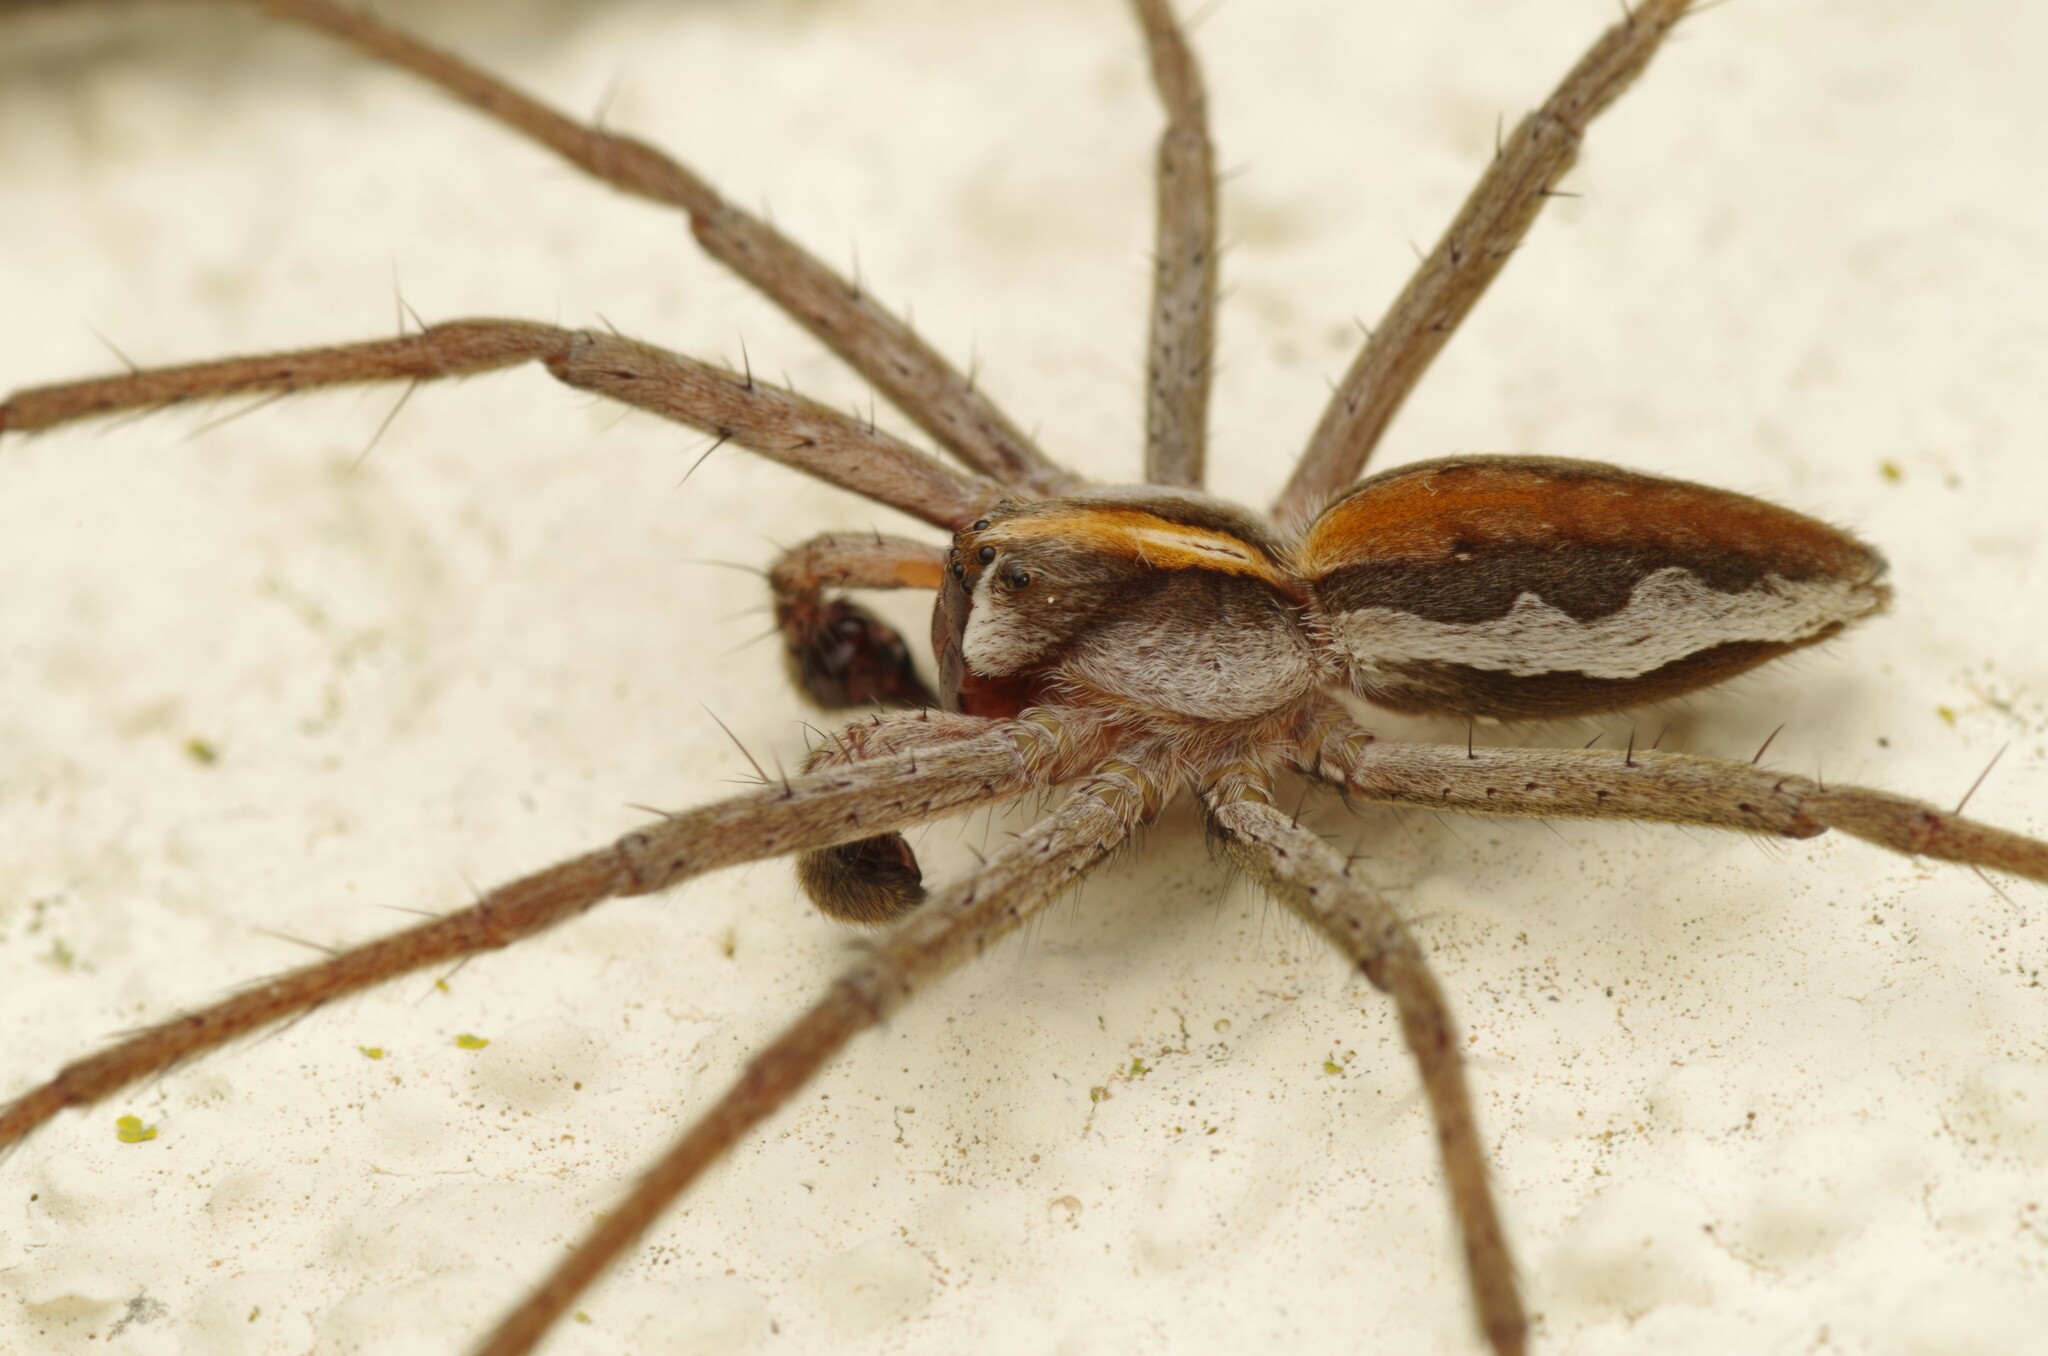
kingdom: Animalia
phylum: Arthropoda
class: Arachnida
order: Araneae
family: Pisauridae
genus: Pisaura
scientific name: Pisaura mirabilis
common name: Tent spider
